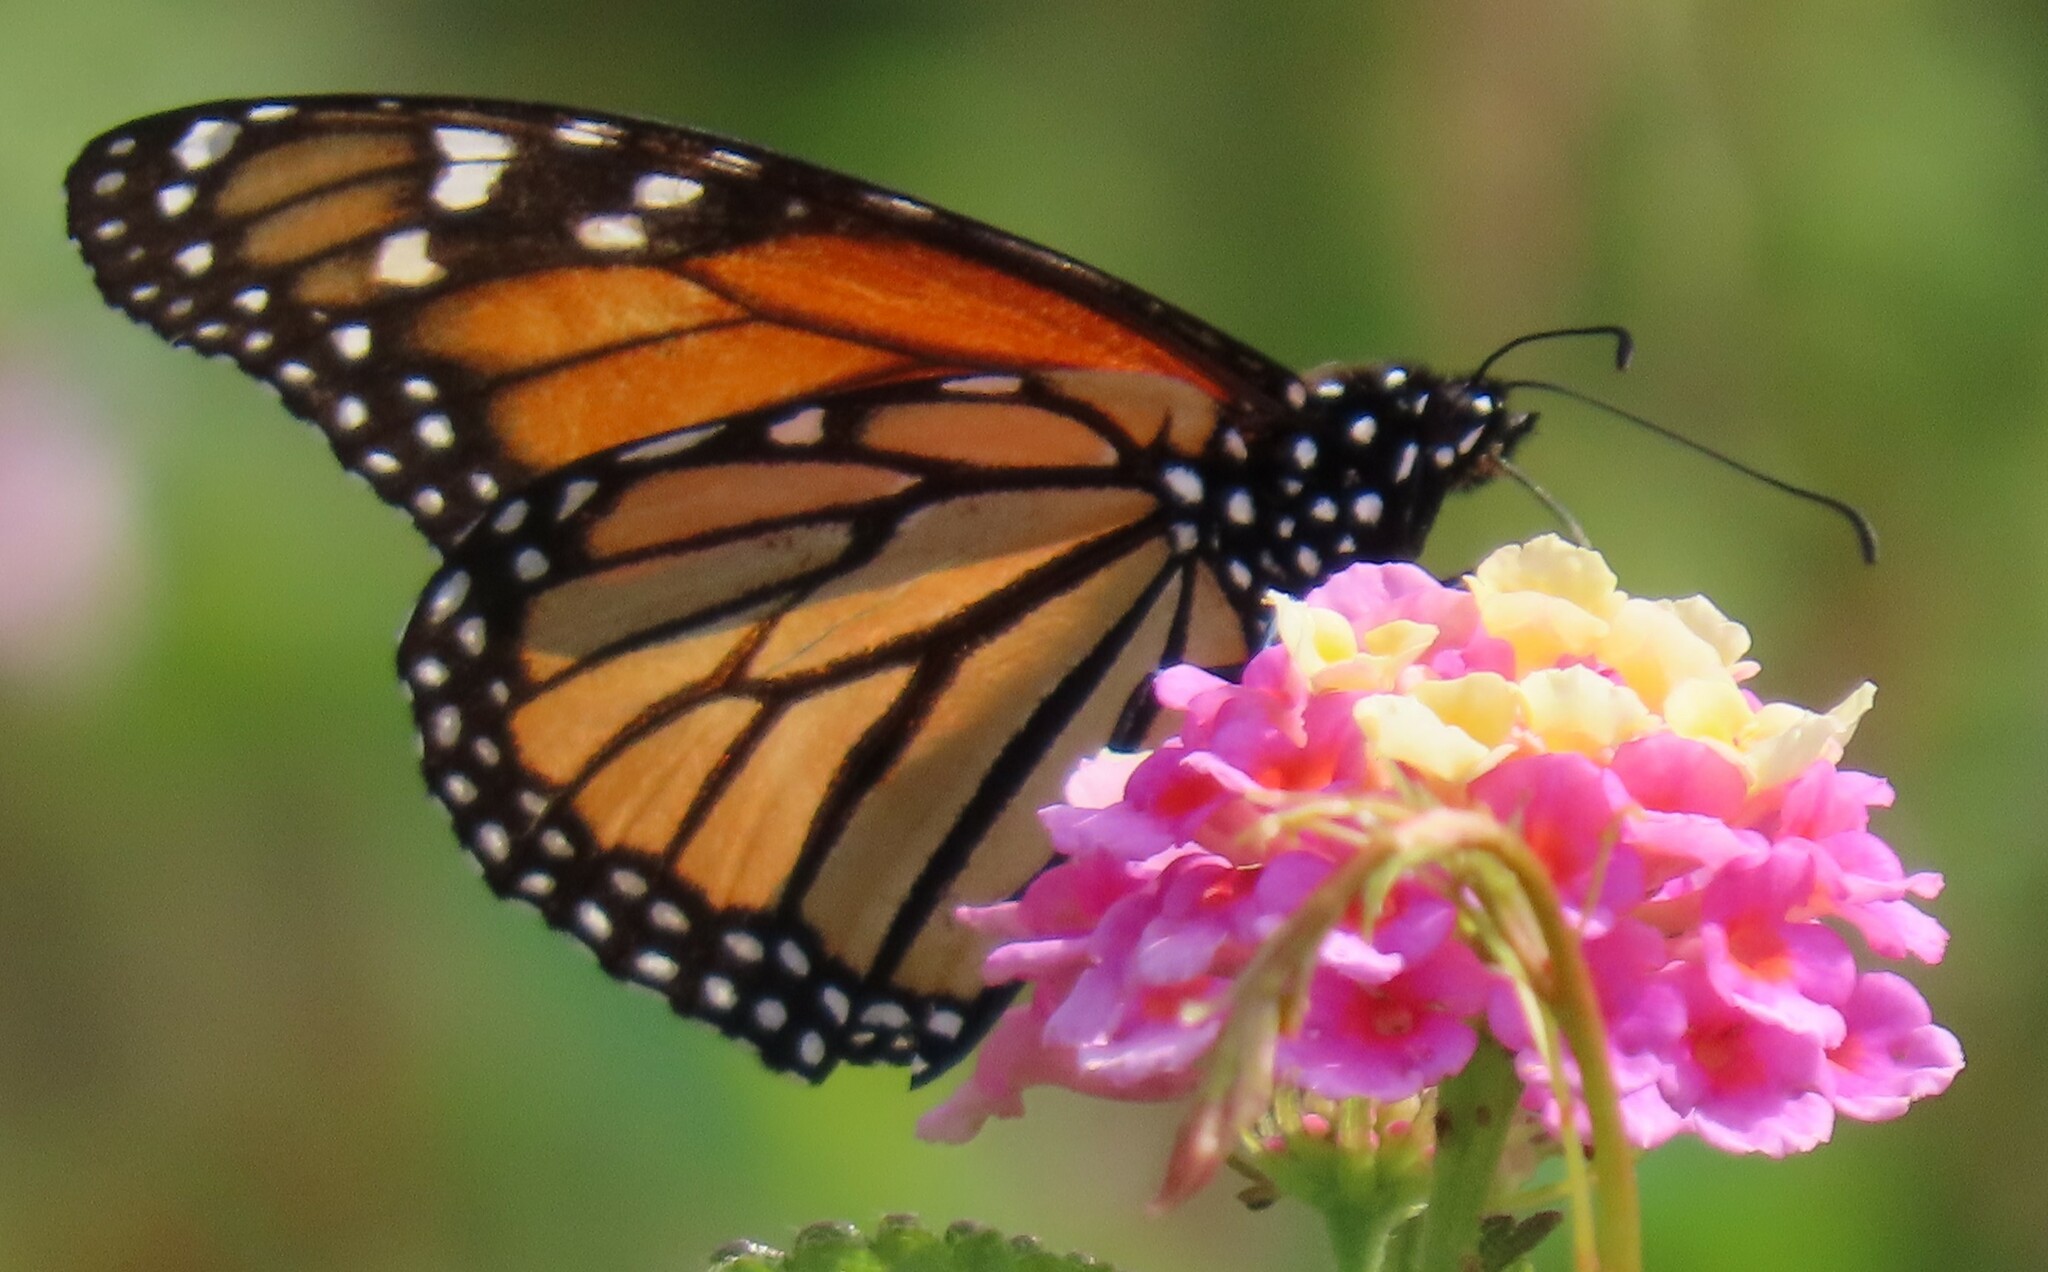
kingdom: Animalia
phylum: Arthropoda
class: Insecta
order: Lepidoptera
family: Nymphalidae
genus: Danaus
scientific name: Danaus plexippus
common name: Monarch
